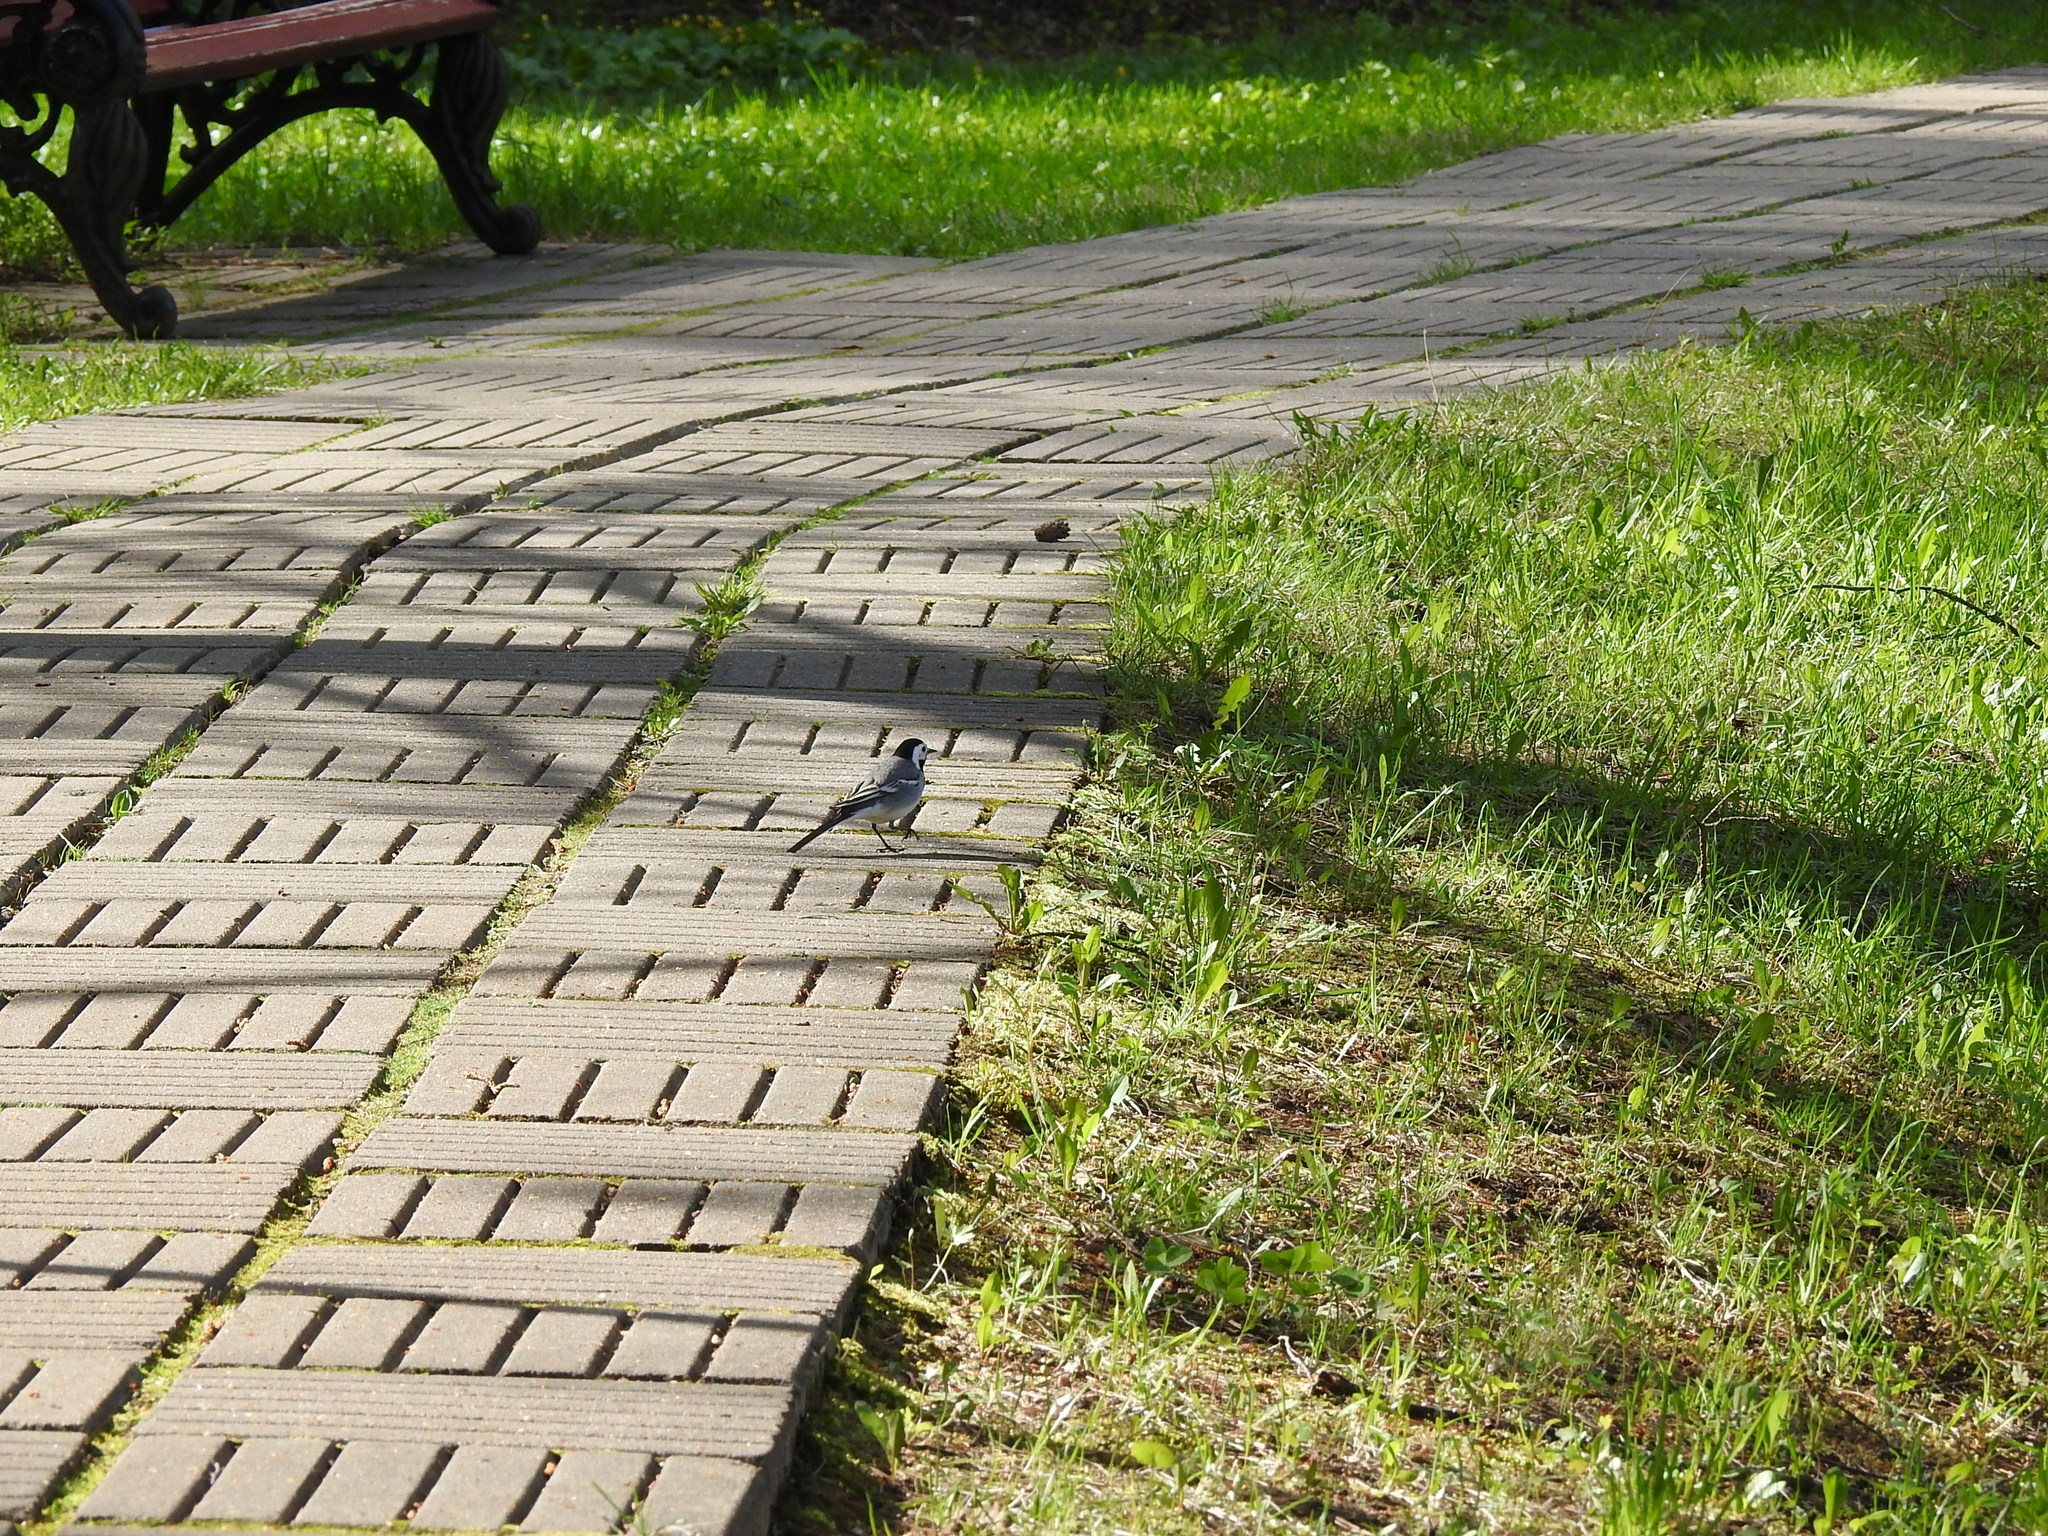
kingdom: Animalia
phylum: Chordata
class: Aves
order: Passeriformes
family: Motacillidae
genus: Motacilla
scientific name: Motacilla alba
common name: White wagtail
